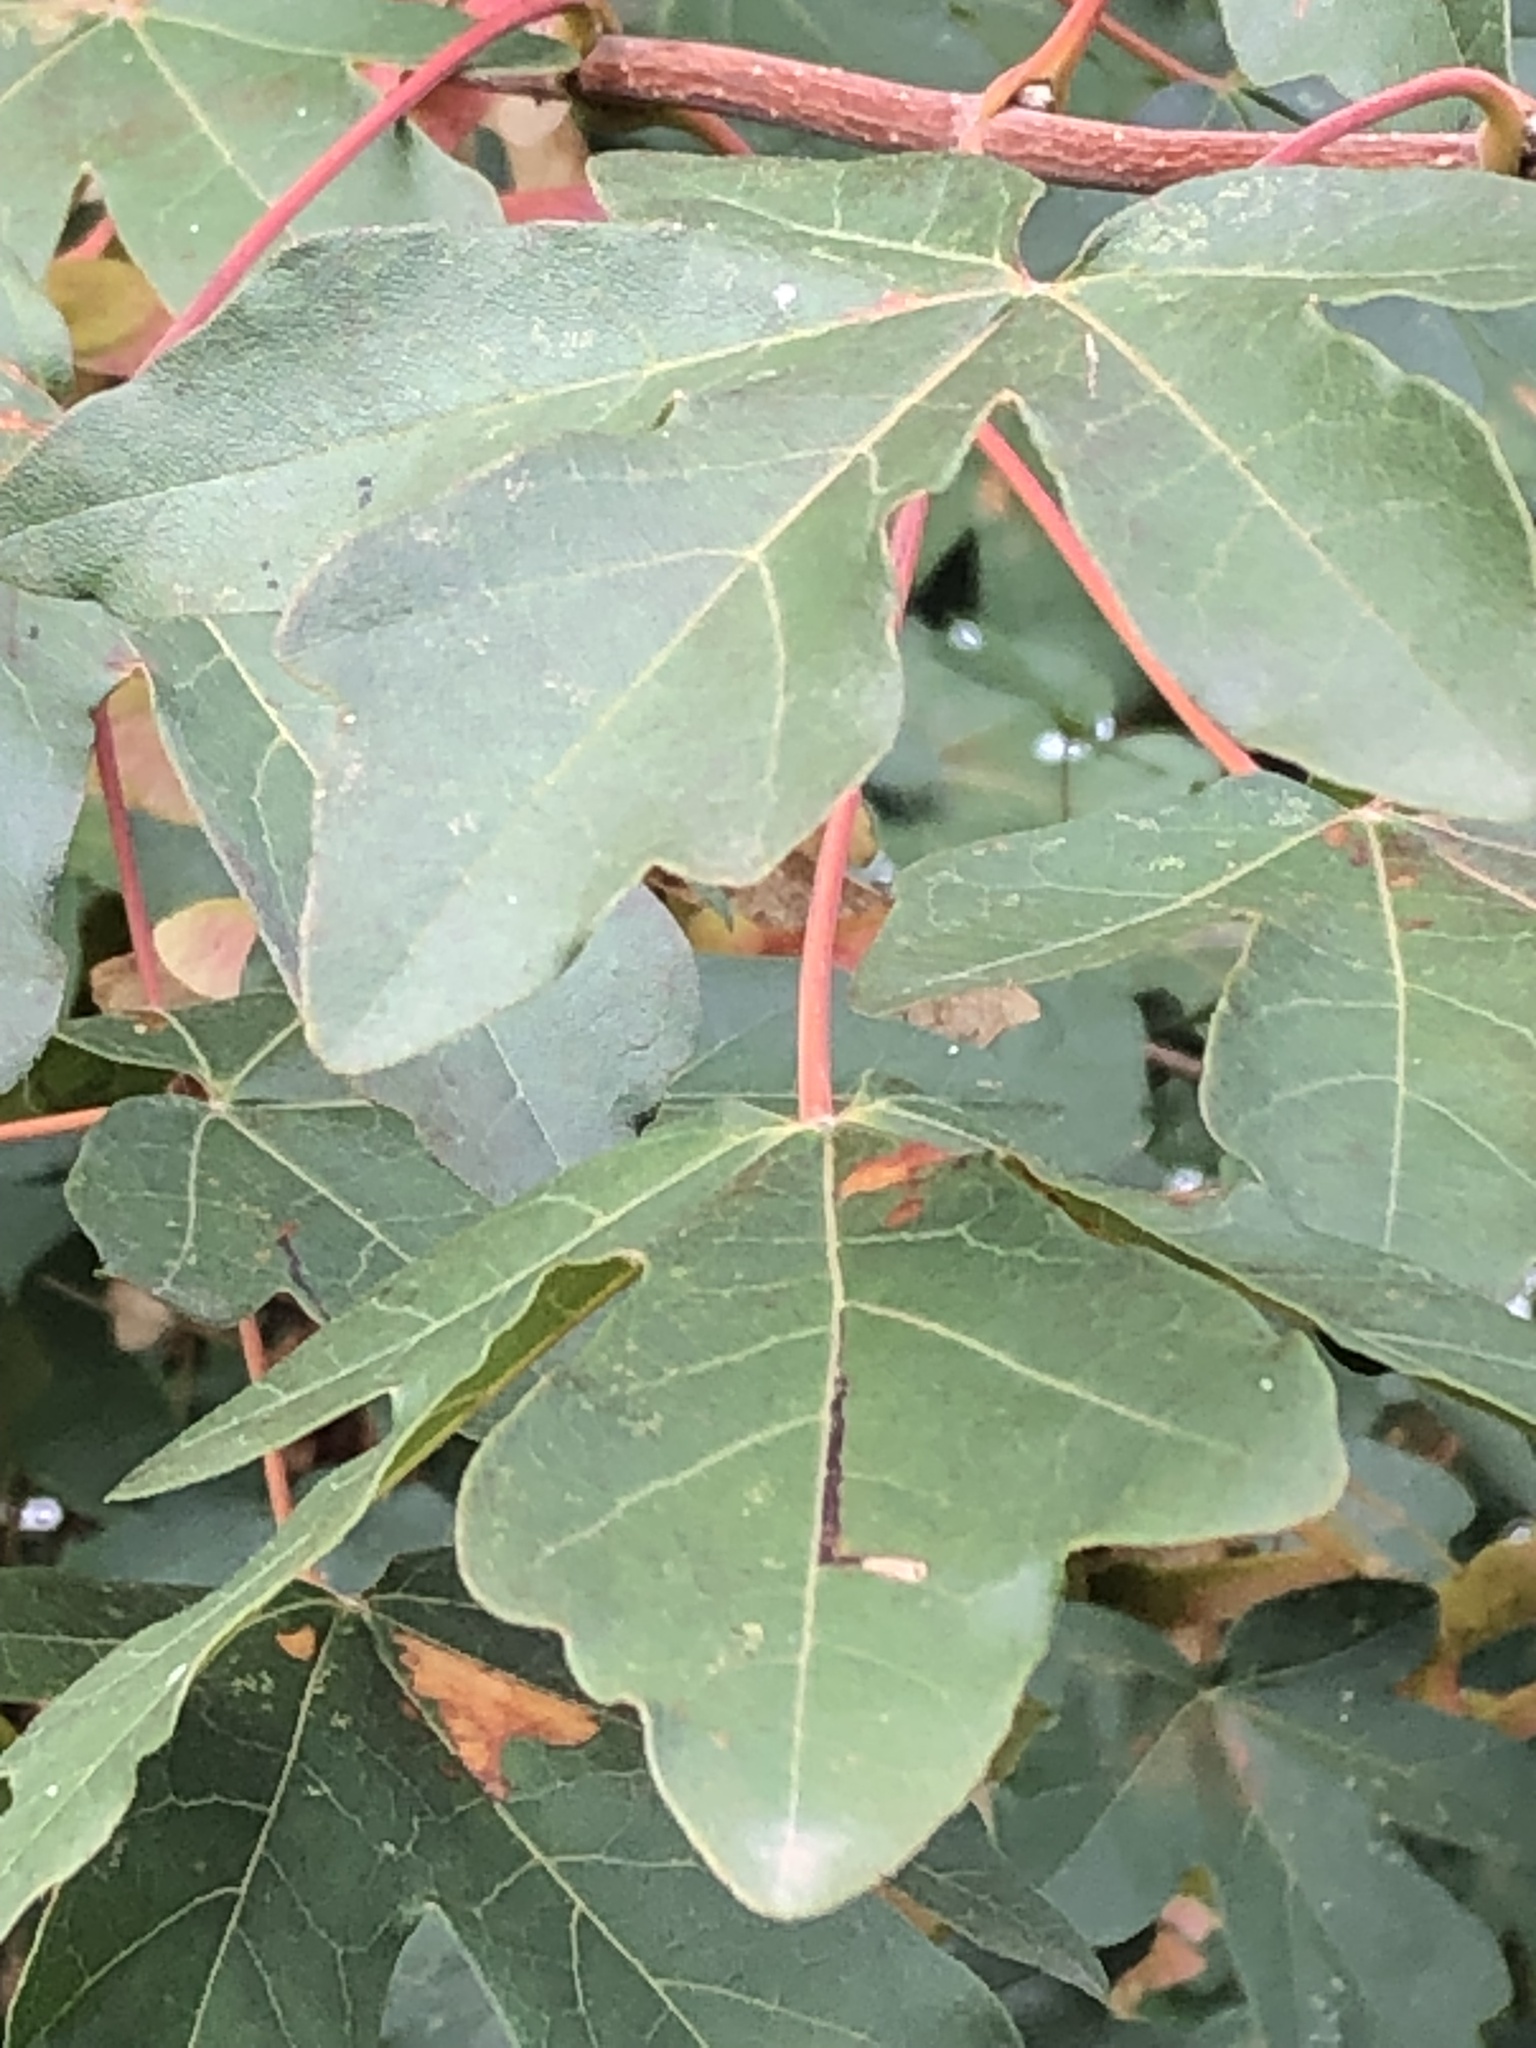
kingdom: Plantae
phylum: Tracheophyta
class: Magnoliopsida
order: Sapindales
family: Sapindaceae
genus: Acer
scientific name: Acer campestre
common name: Field maple
